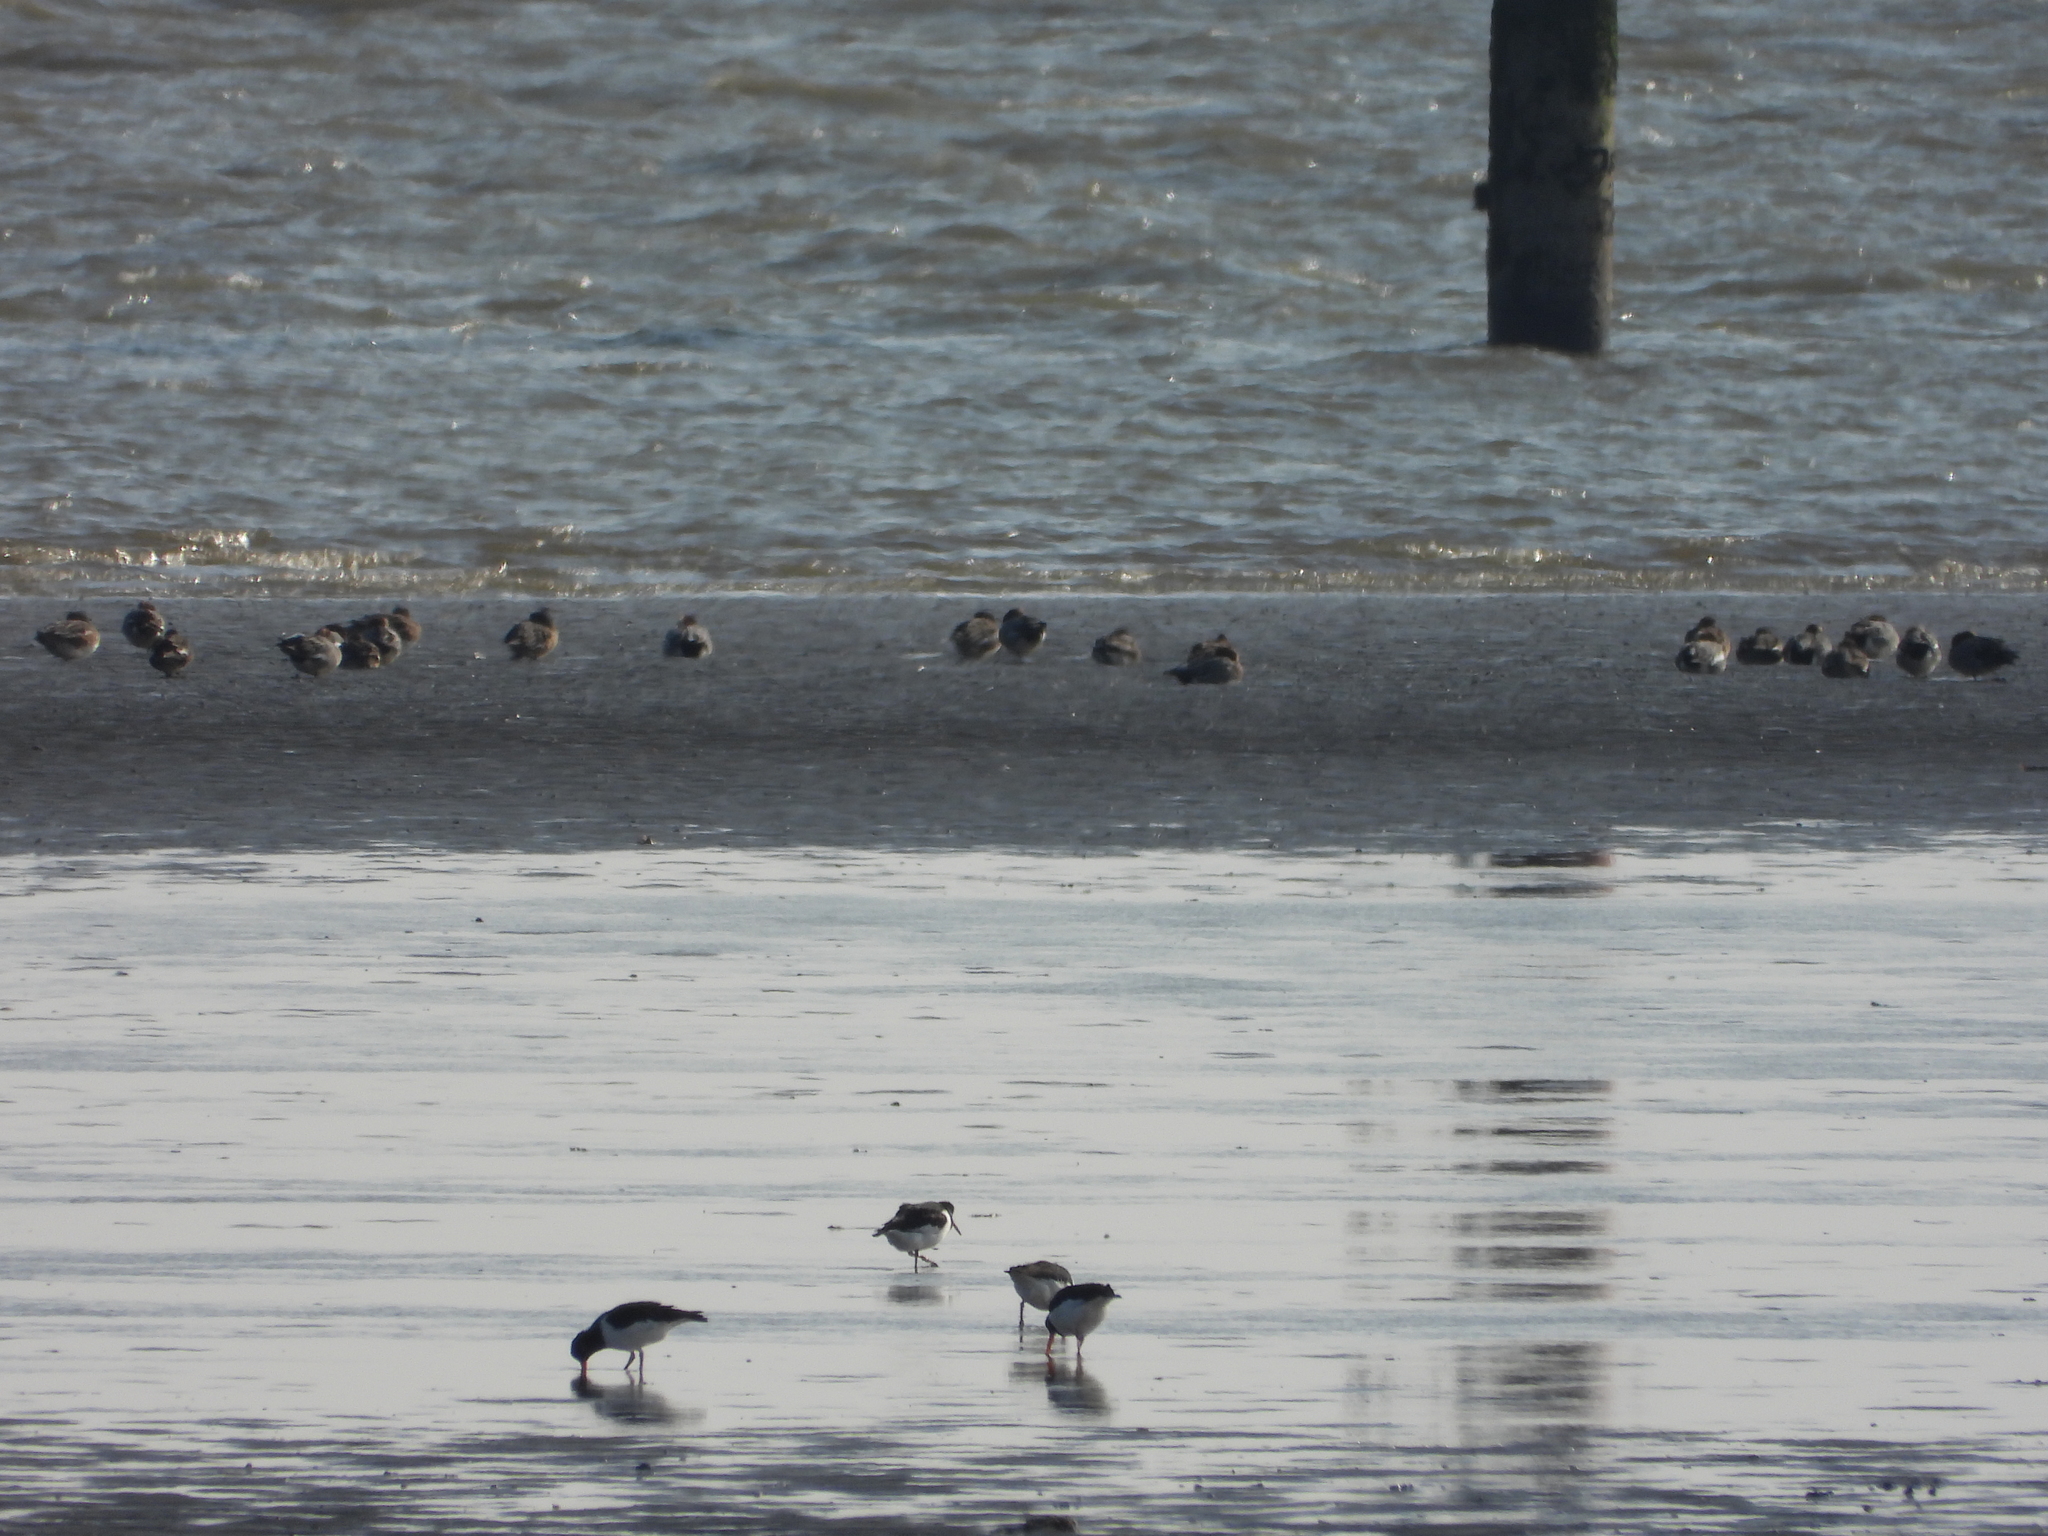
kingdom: Animalia
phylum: Chordata
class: Aves
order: Charadriiformes
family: Haematopodidae
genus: Haematopus
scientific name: Haematopus ostralegus
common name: Eurasian oystercatcher
